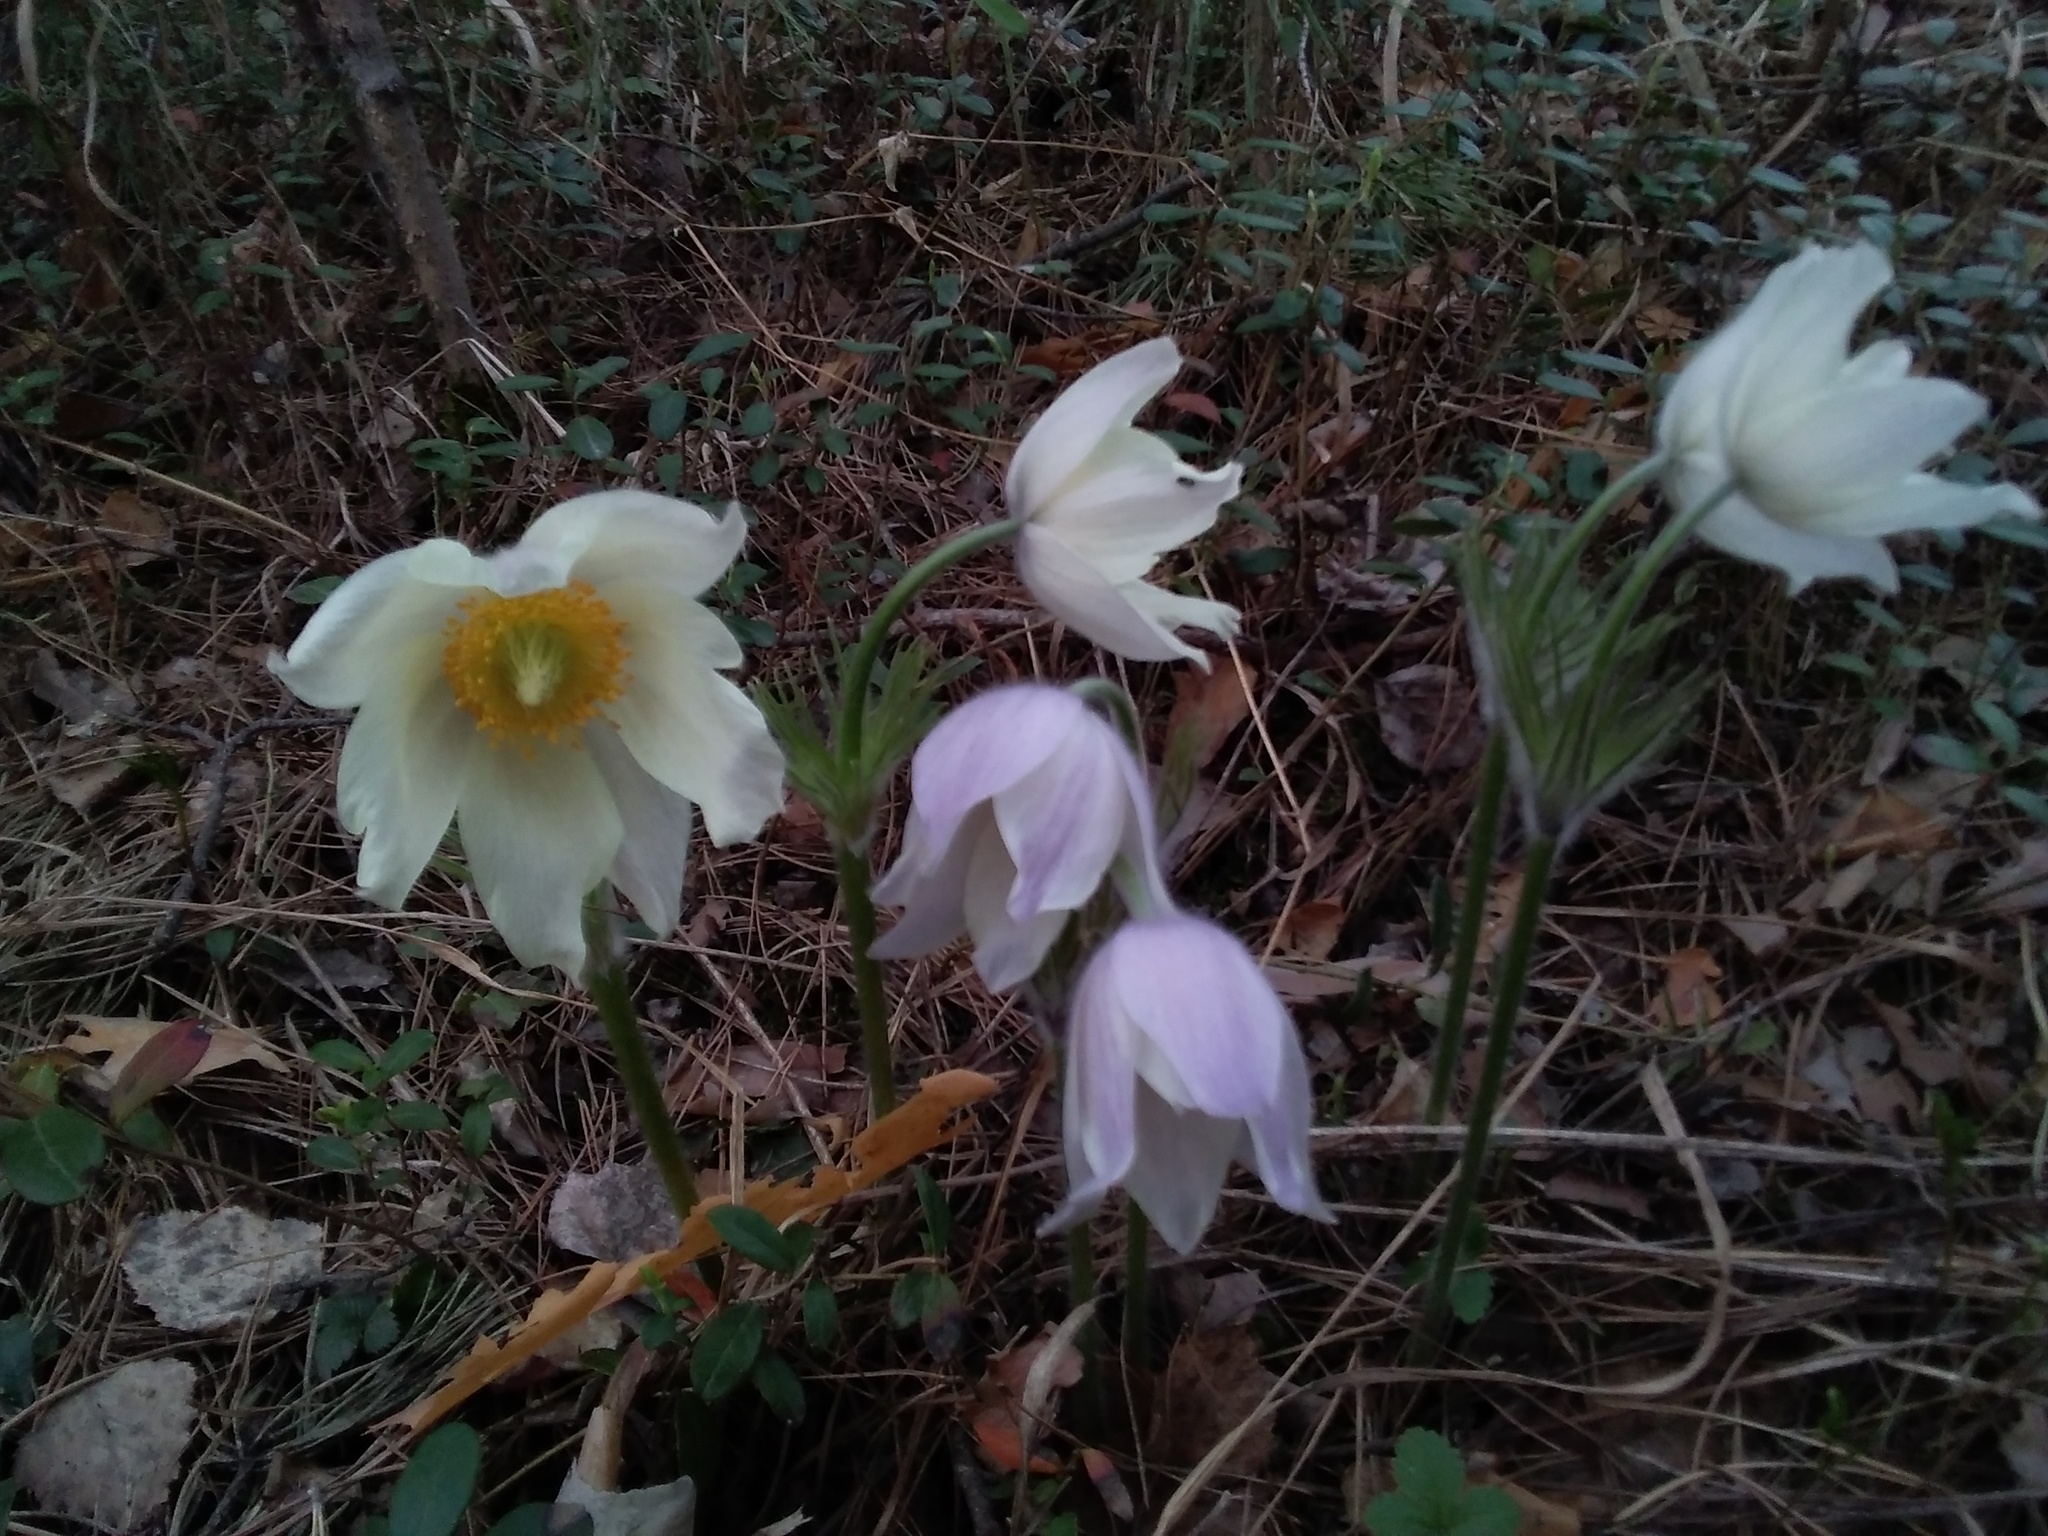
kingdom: Plantae
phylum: Tracheophyta
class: Magnoliopsida
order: Ranunculales
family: Ranunculaceae
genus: Pulsatilla
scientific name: Pulsatilla patens
